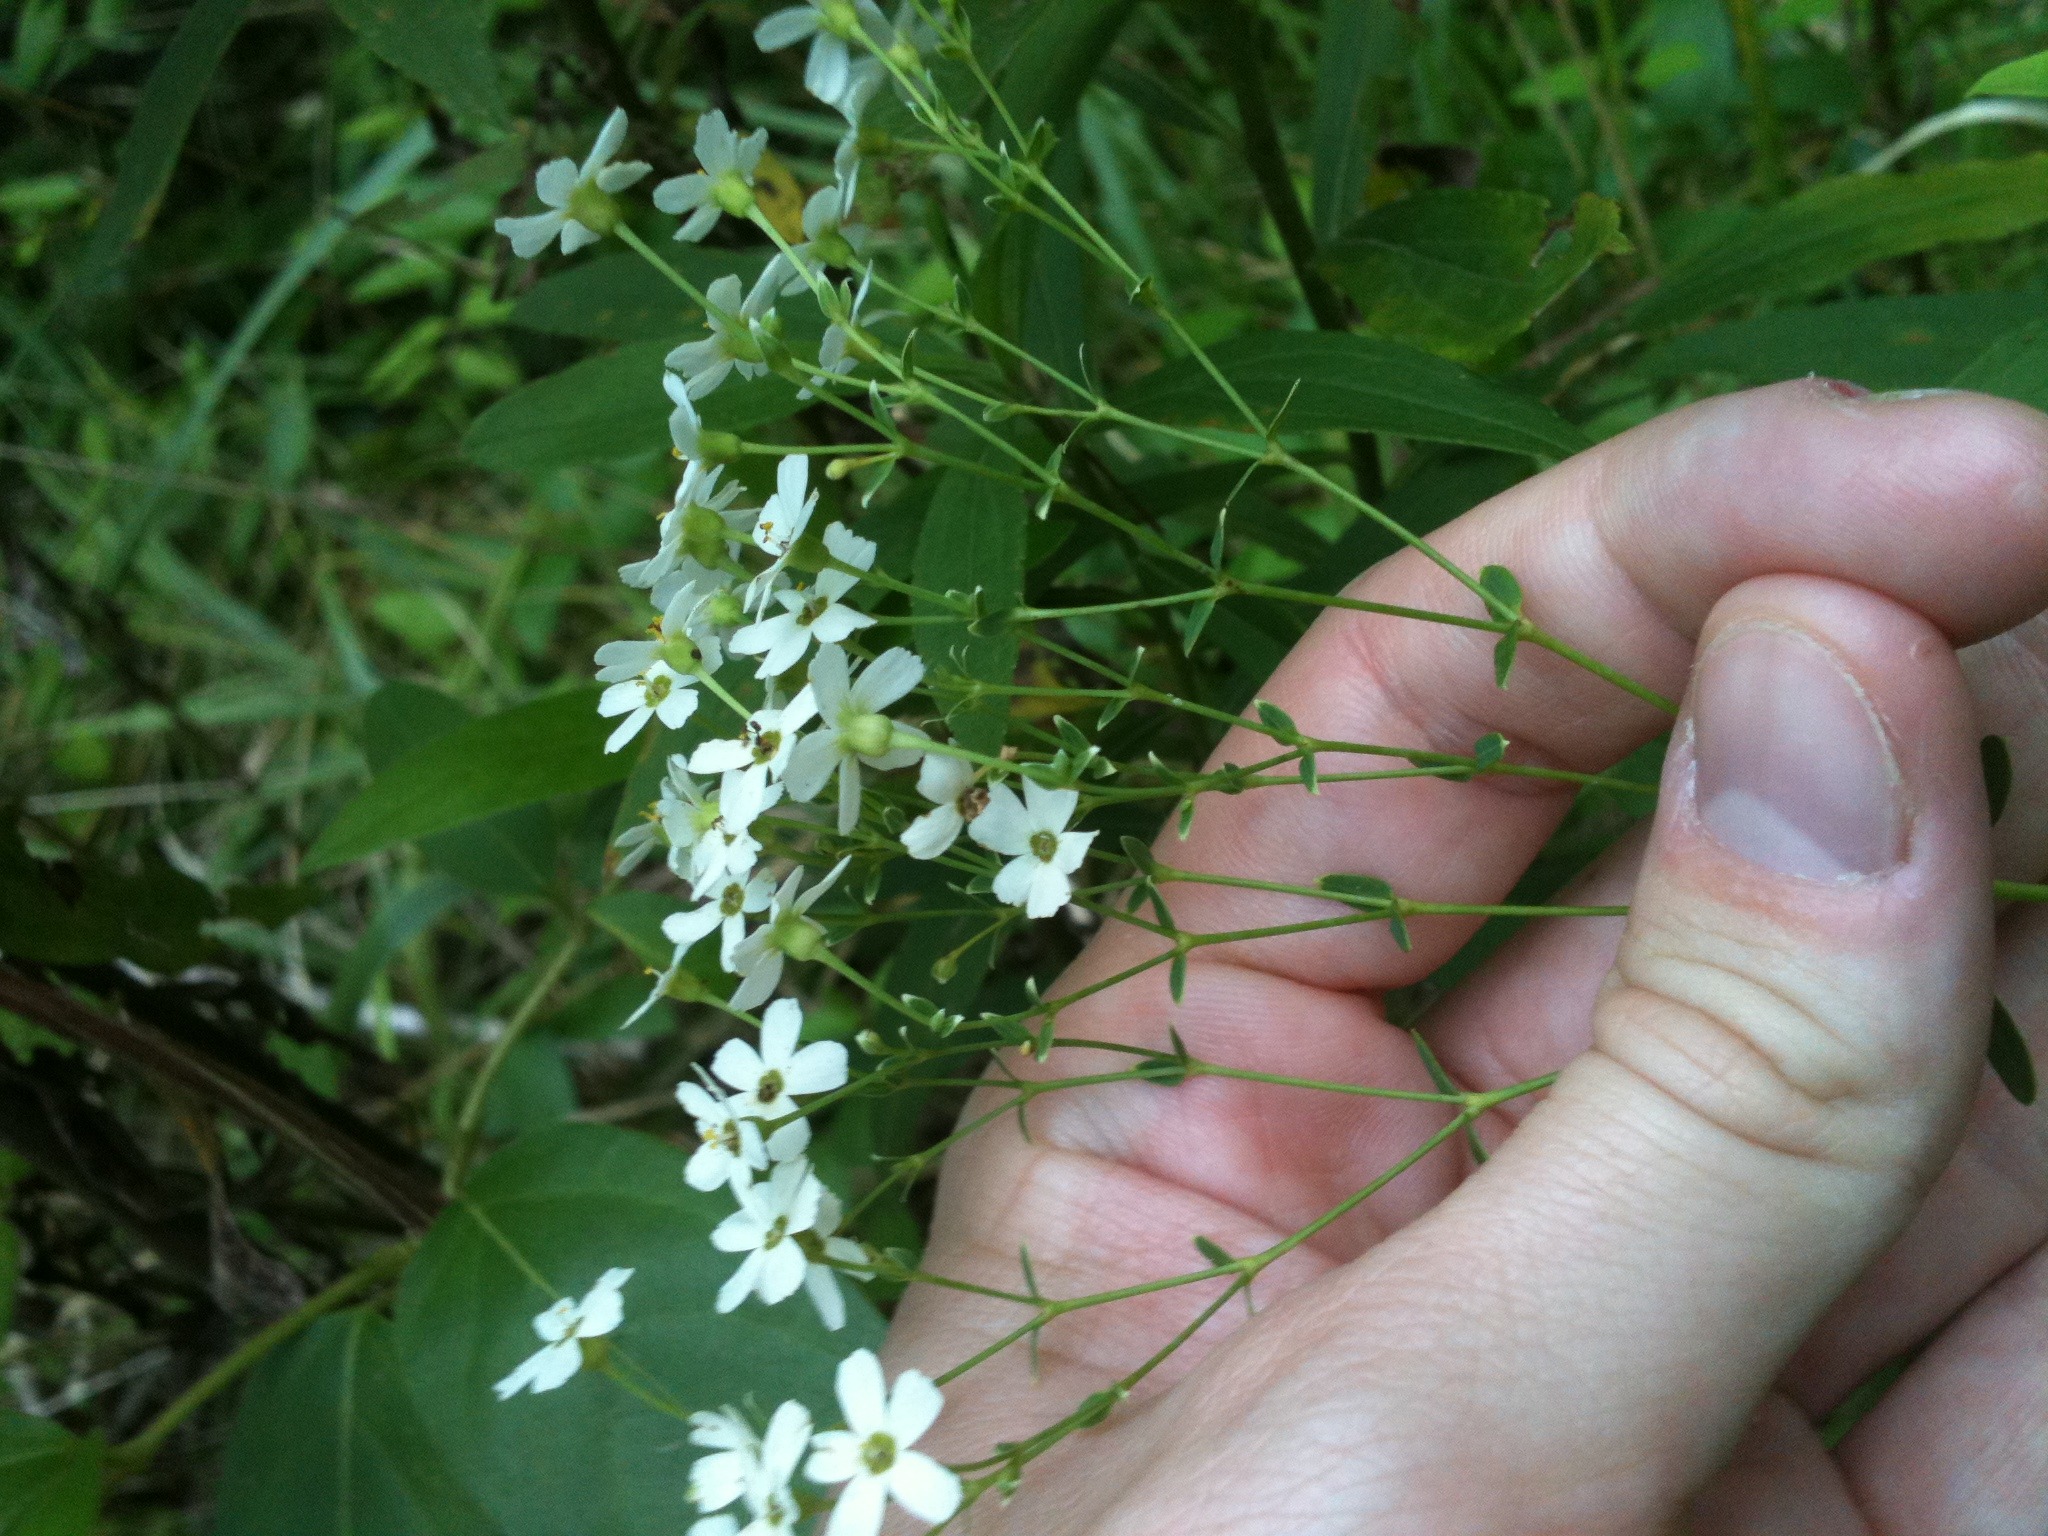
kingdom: Plantae
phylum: Tracheophyta
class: Magnoliopsida
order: Malpighiales
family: Euphorbiaceae
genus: Euphorbia
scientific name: Euphorbia corollata
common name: Flowering spurge
